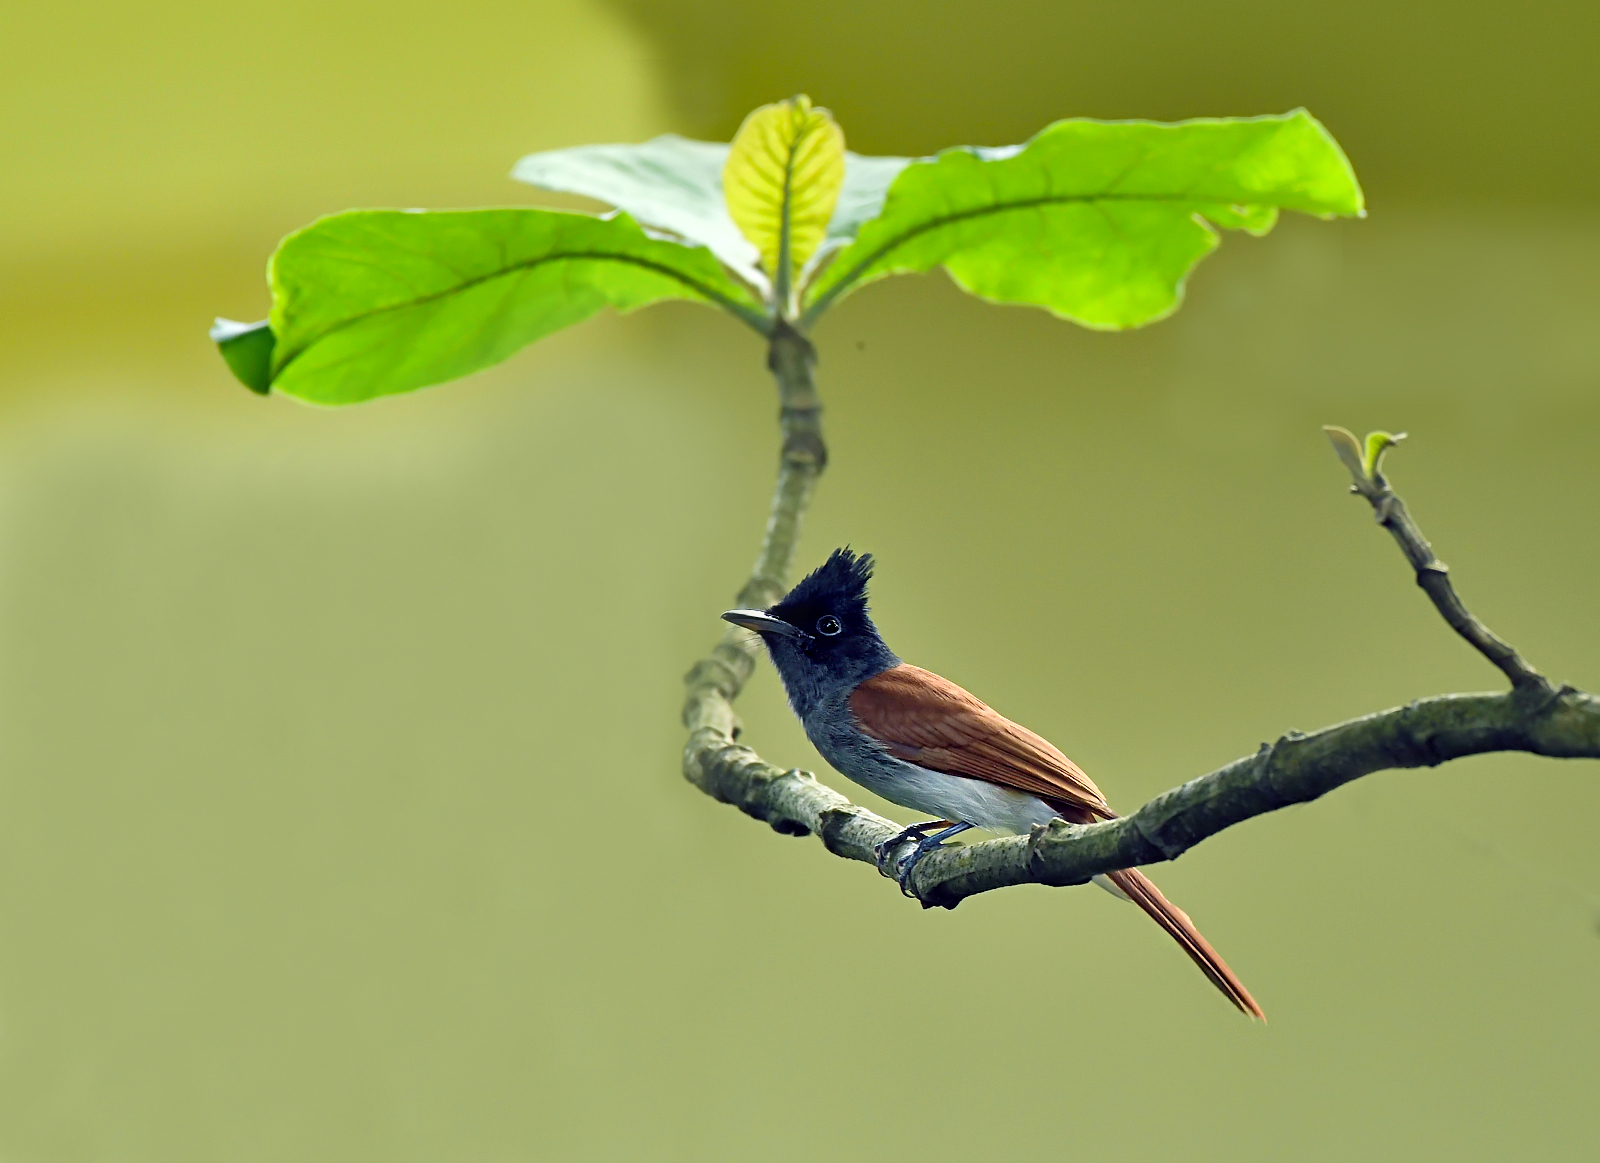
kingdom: Animalia
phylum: Chordata
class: Aves
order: Passeriformes
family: Monarchidae
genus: Terpsiphone
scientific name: Terpsiphone paradisi
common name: Indian paradise flycatcher
